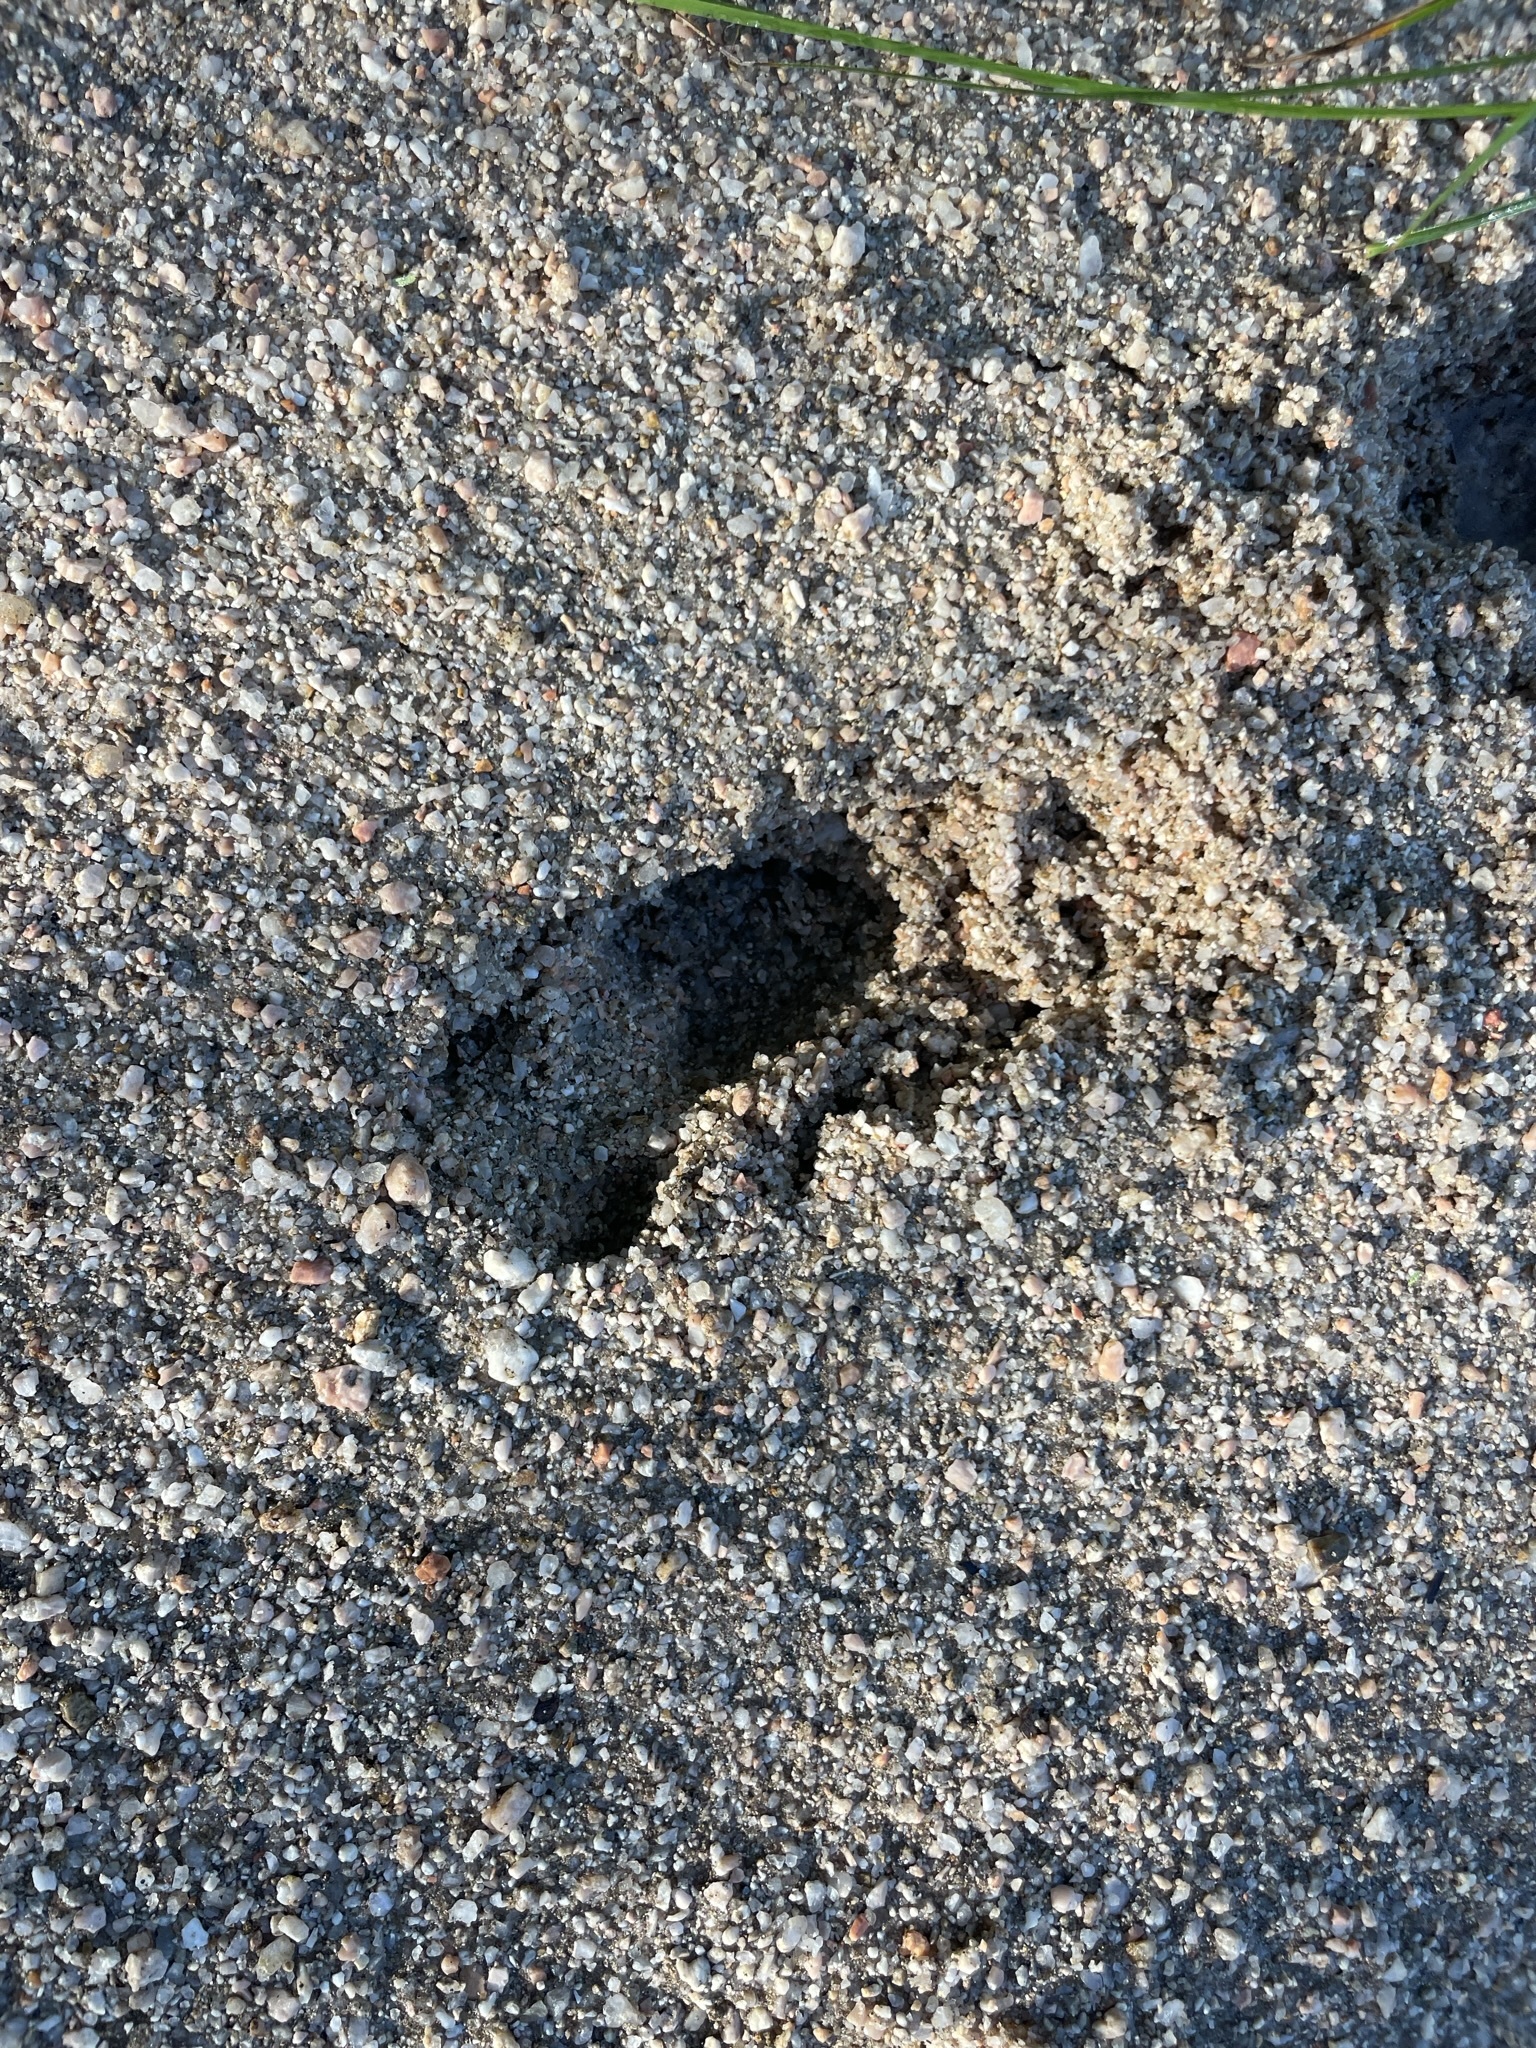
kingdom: Animalia
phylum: Chordata
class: Mammalia
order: Artiodactyla
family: Cervidae
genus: Odocoileus
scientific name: Odocoileus hemionus
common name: Mule deer
